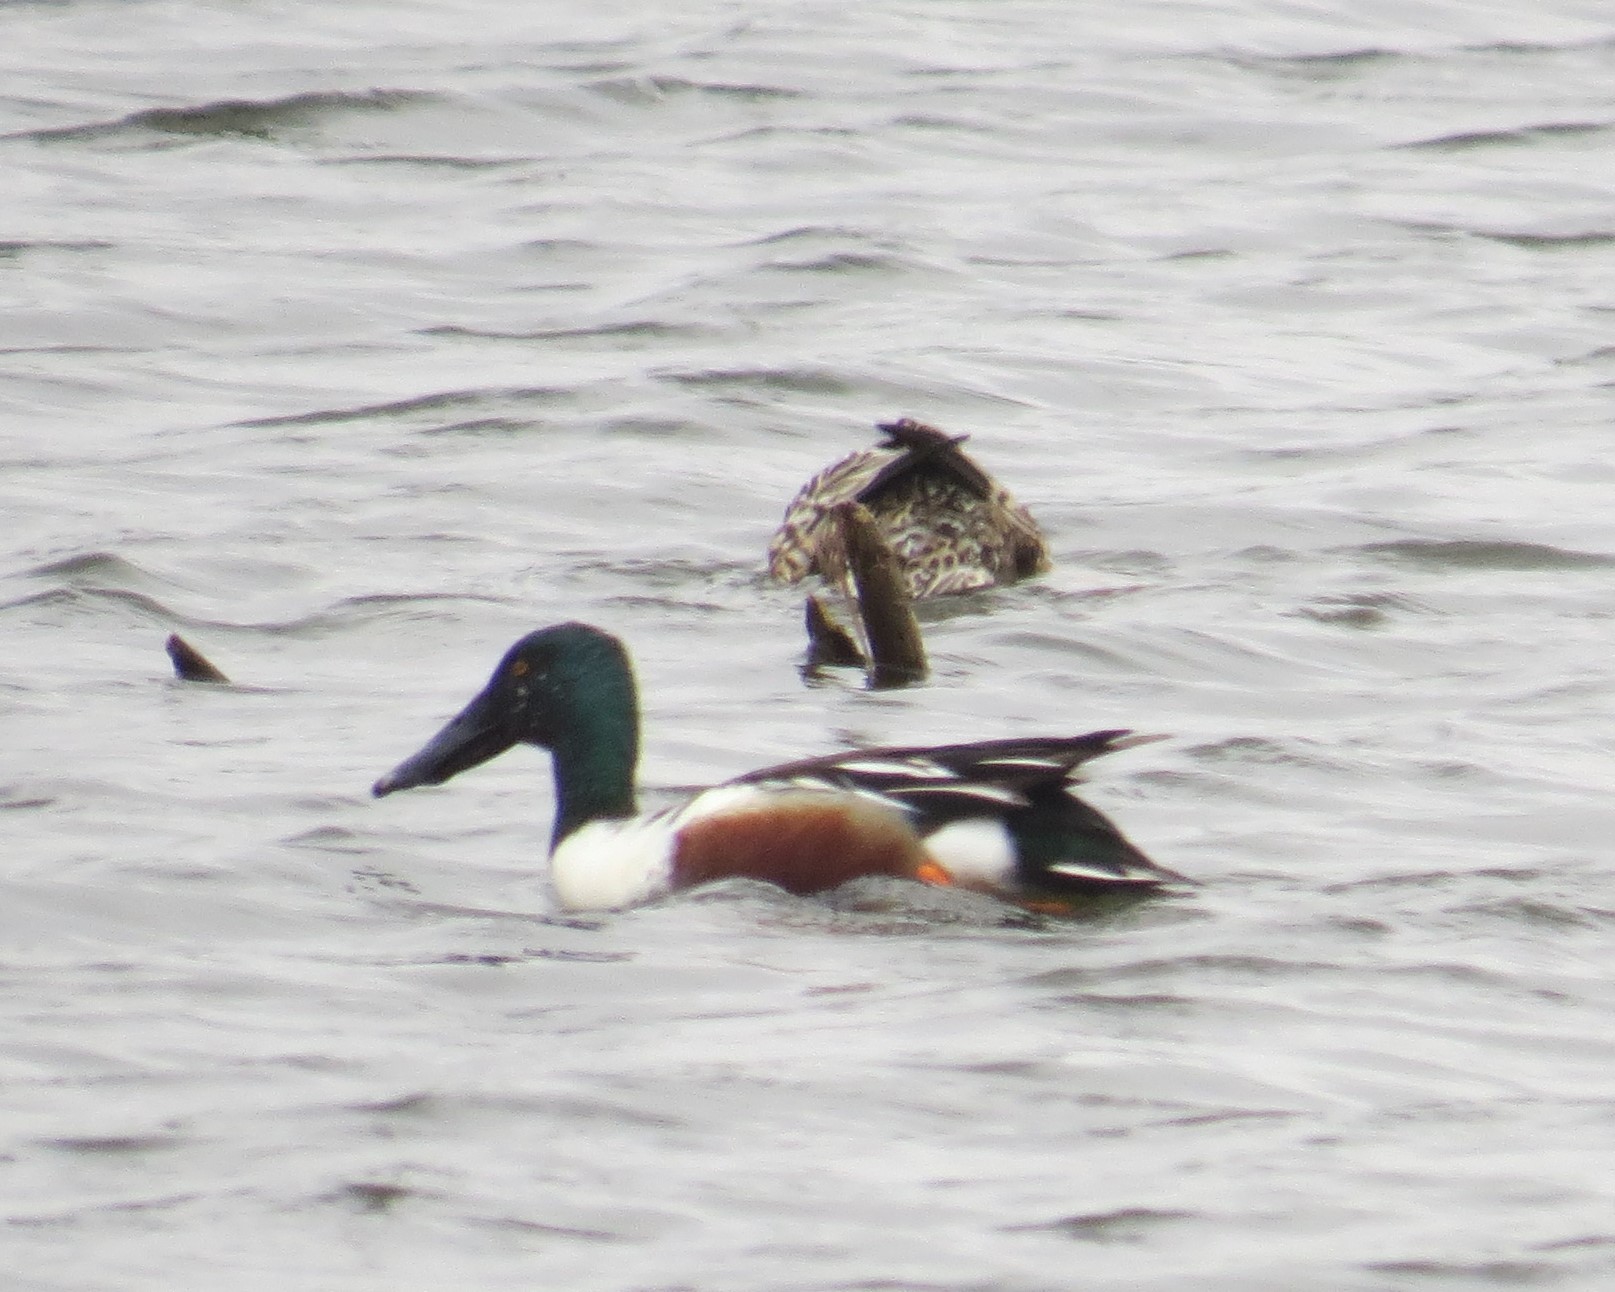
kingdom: Animalia
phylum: Chordata
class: Aves
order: Anseriformes
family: Anatidae
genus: Spatula
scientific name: Spatula clypeata
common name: Northern shoveler
